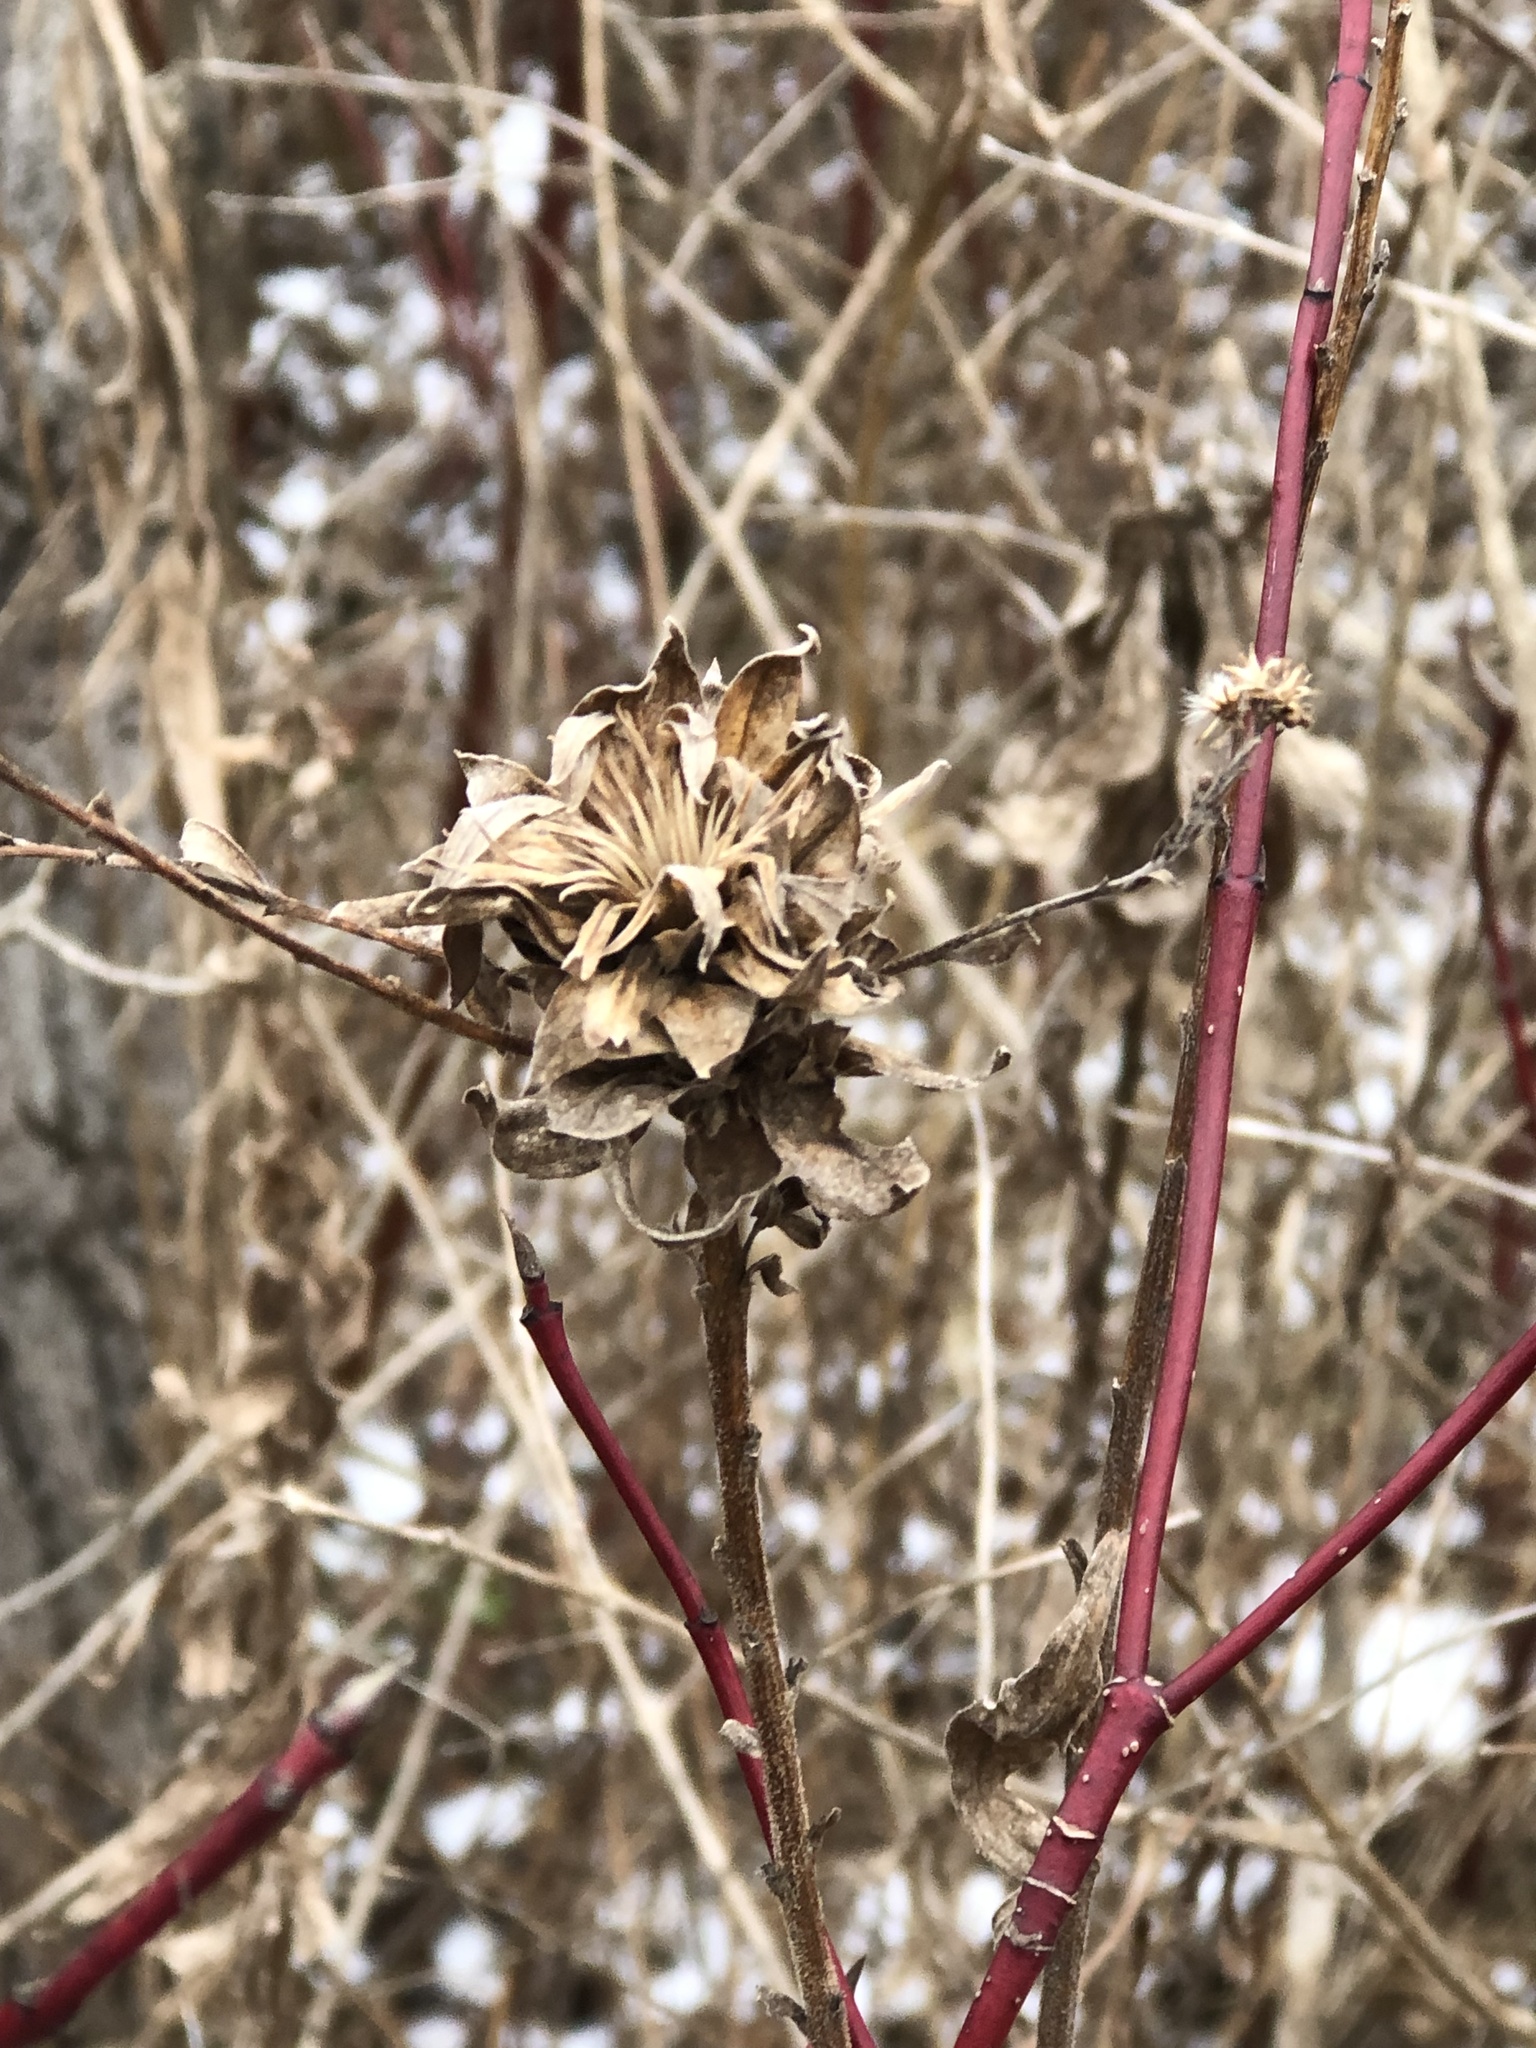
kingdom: Animalia
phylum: Arthropoda
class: Insecta
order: Diptera
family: Cecidomyiidae
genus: Rhopalomyia
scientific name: Rhopalomyia solidaginis
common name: Goldenrod bunch gall midge
